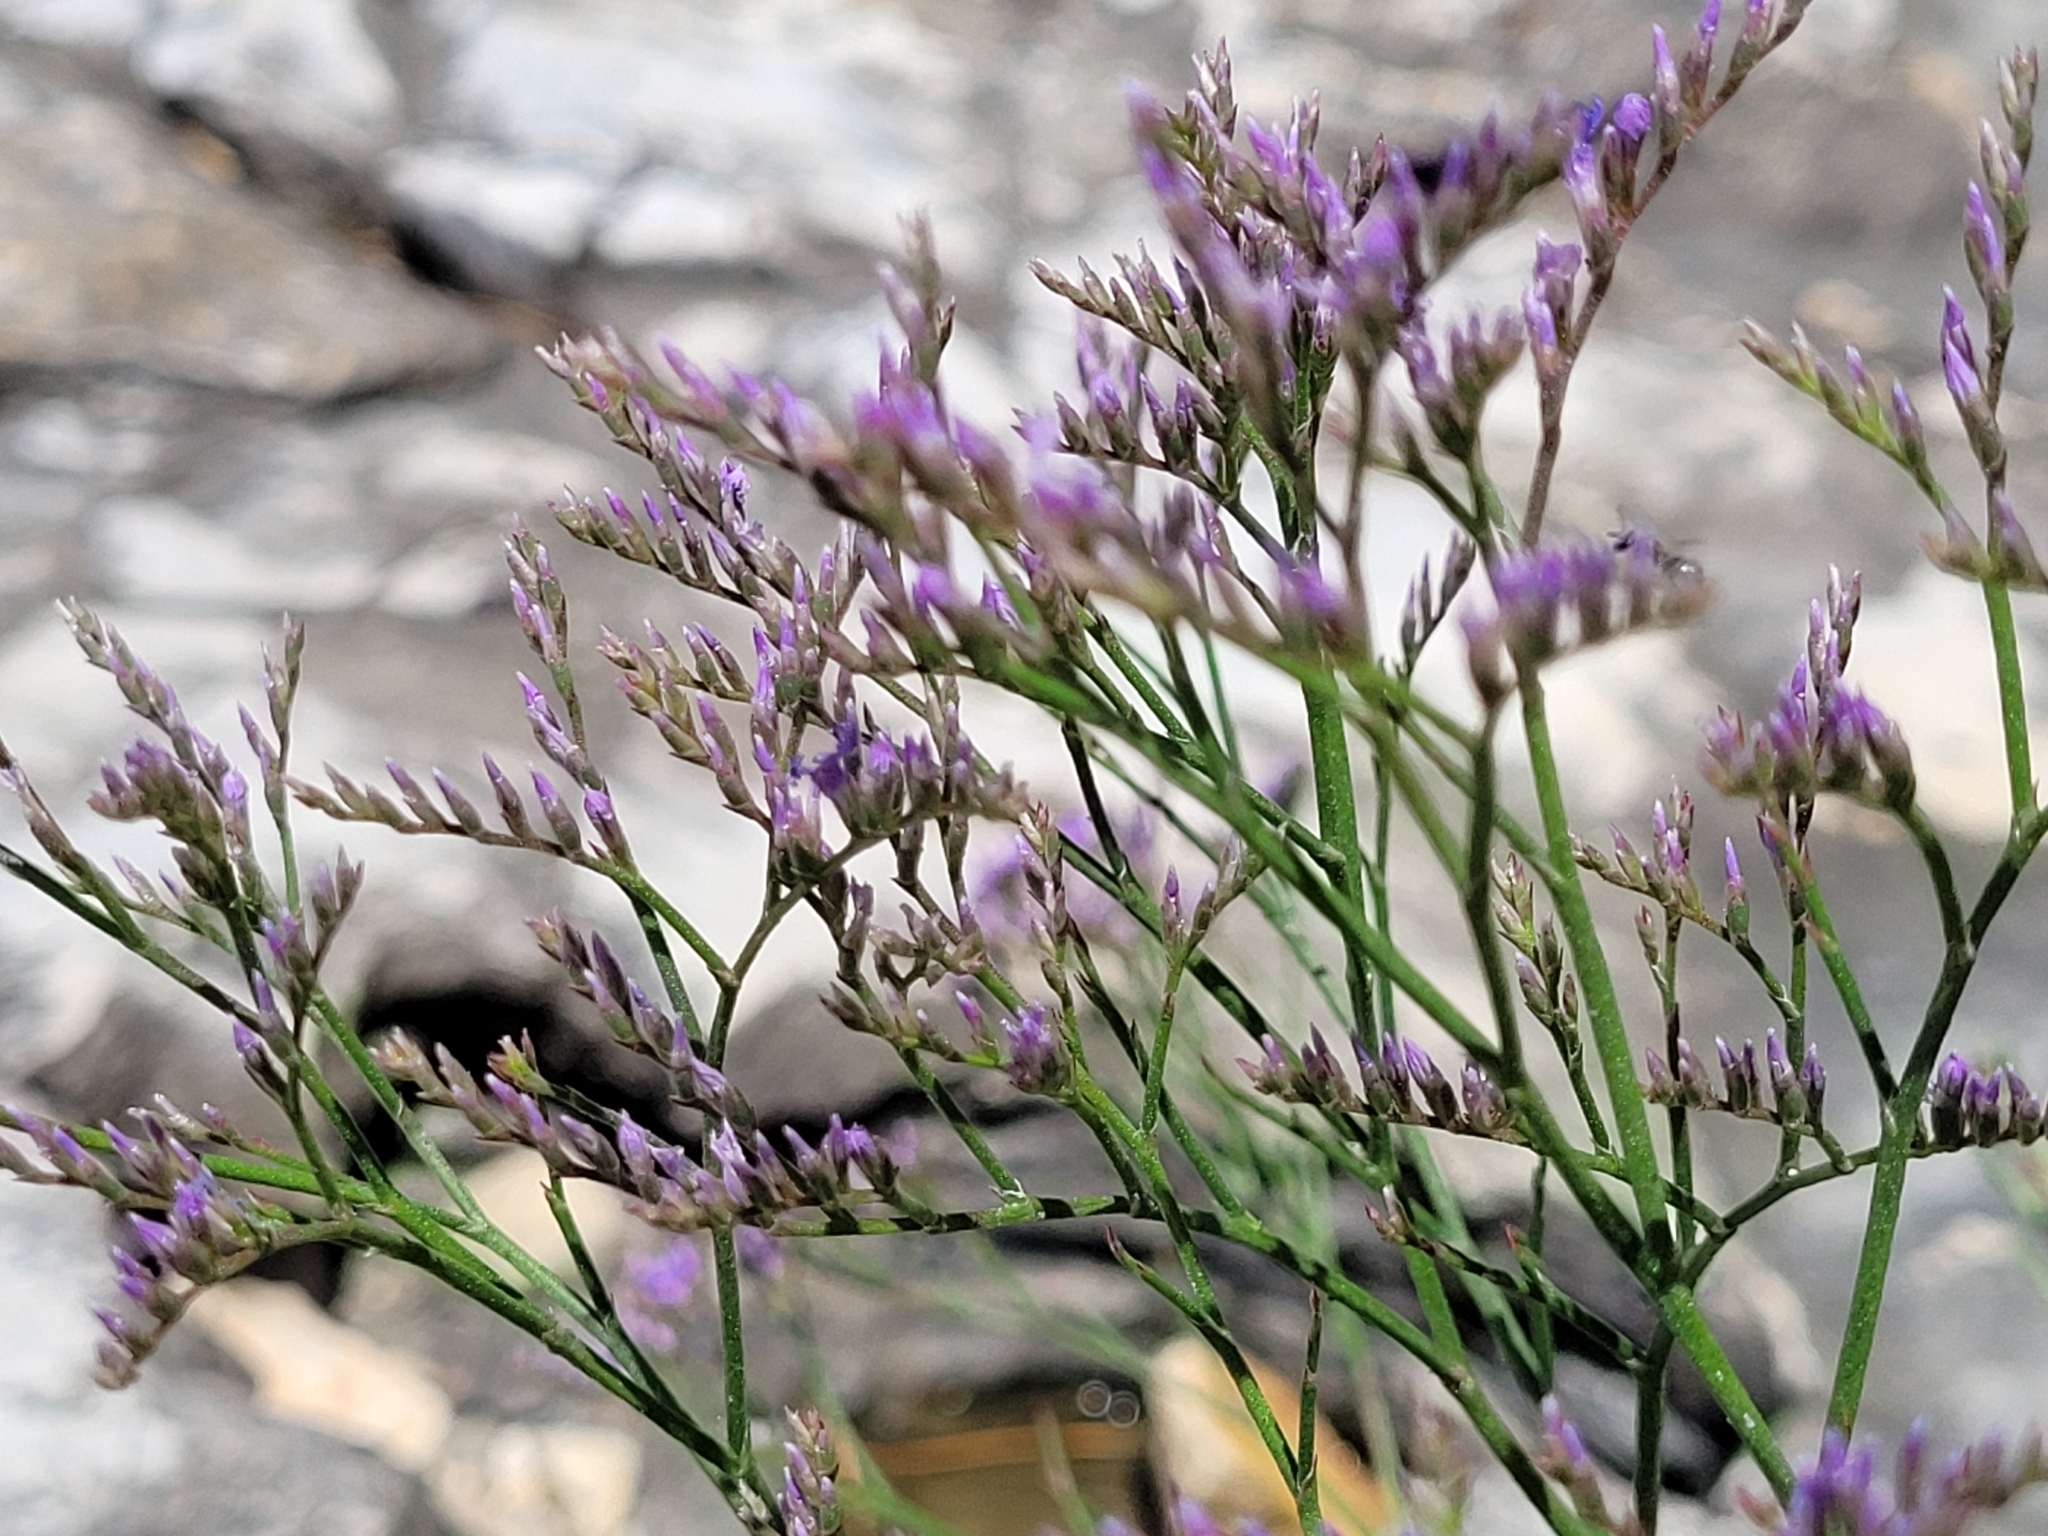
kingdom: Plantae
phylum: Tracheophyta
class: Magnoliopsida
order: Caryophyllales
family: Plumbaginaceae
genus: Limonium
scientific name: Limonium narbonense
